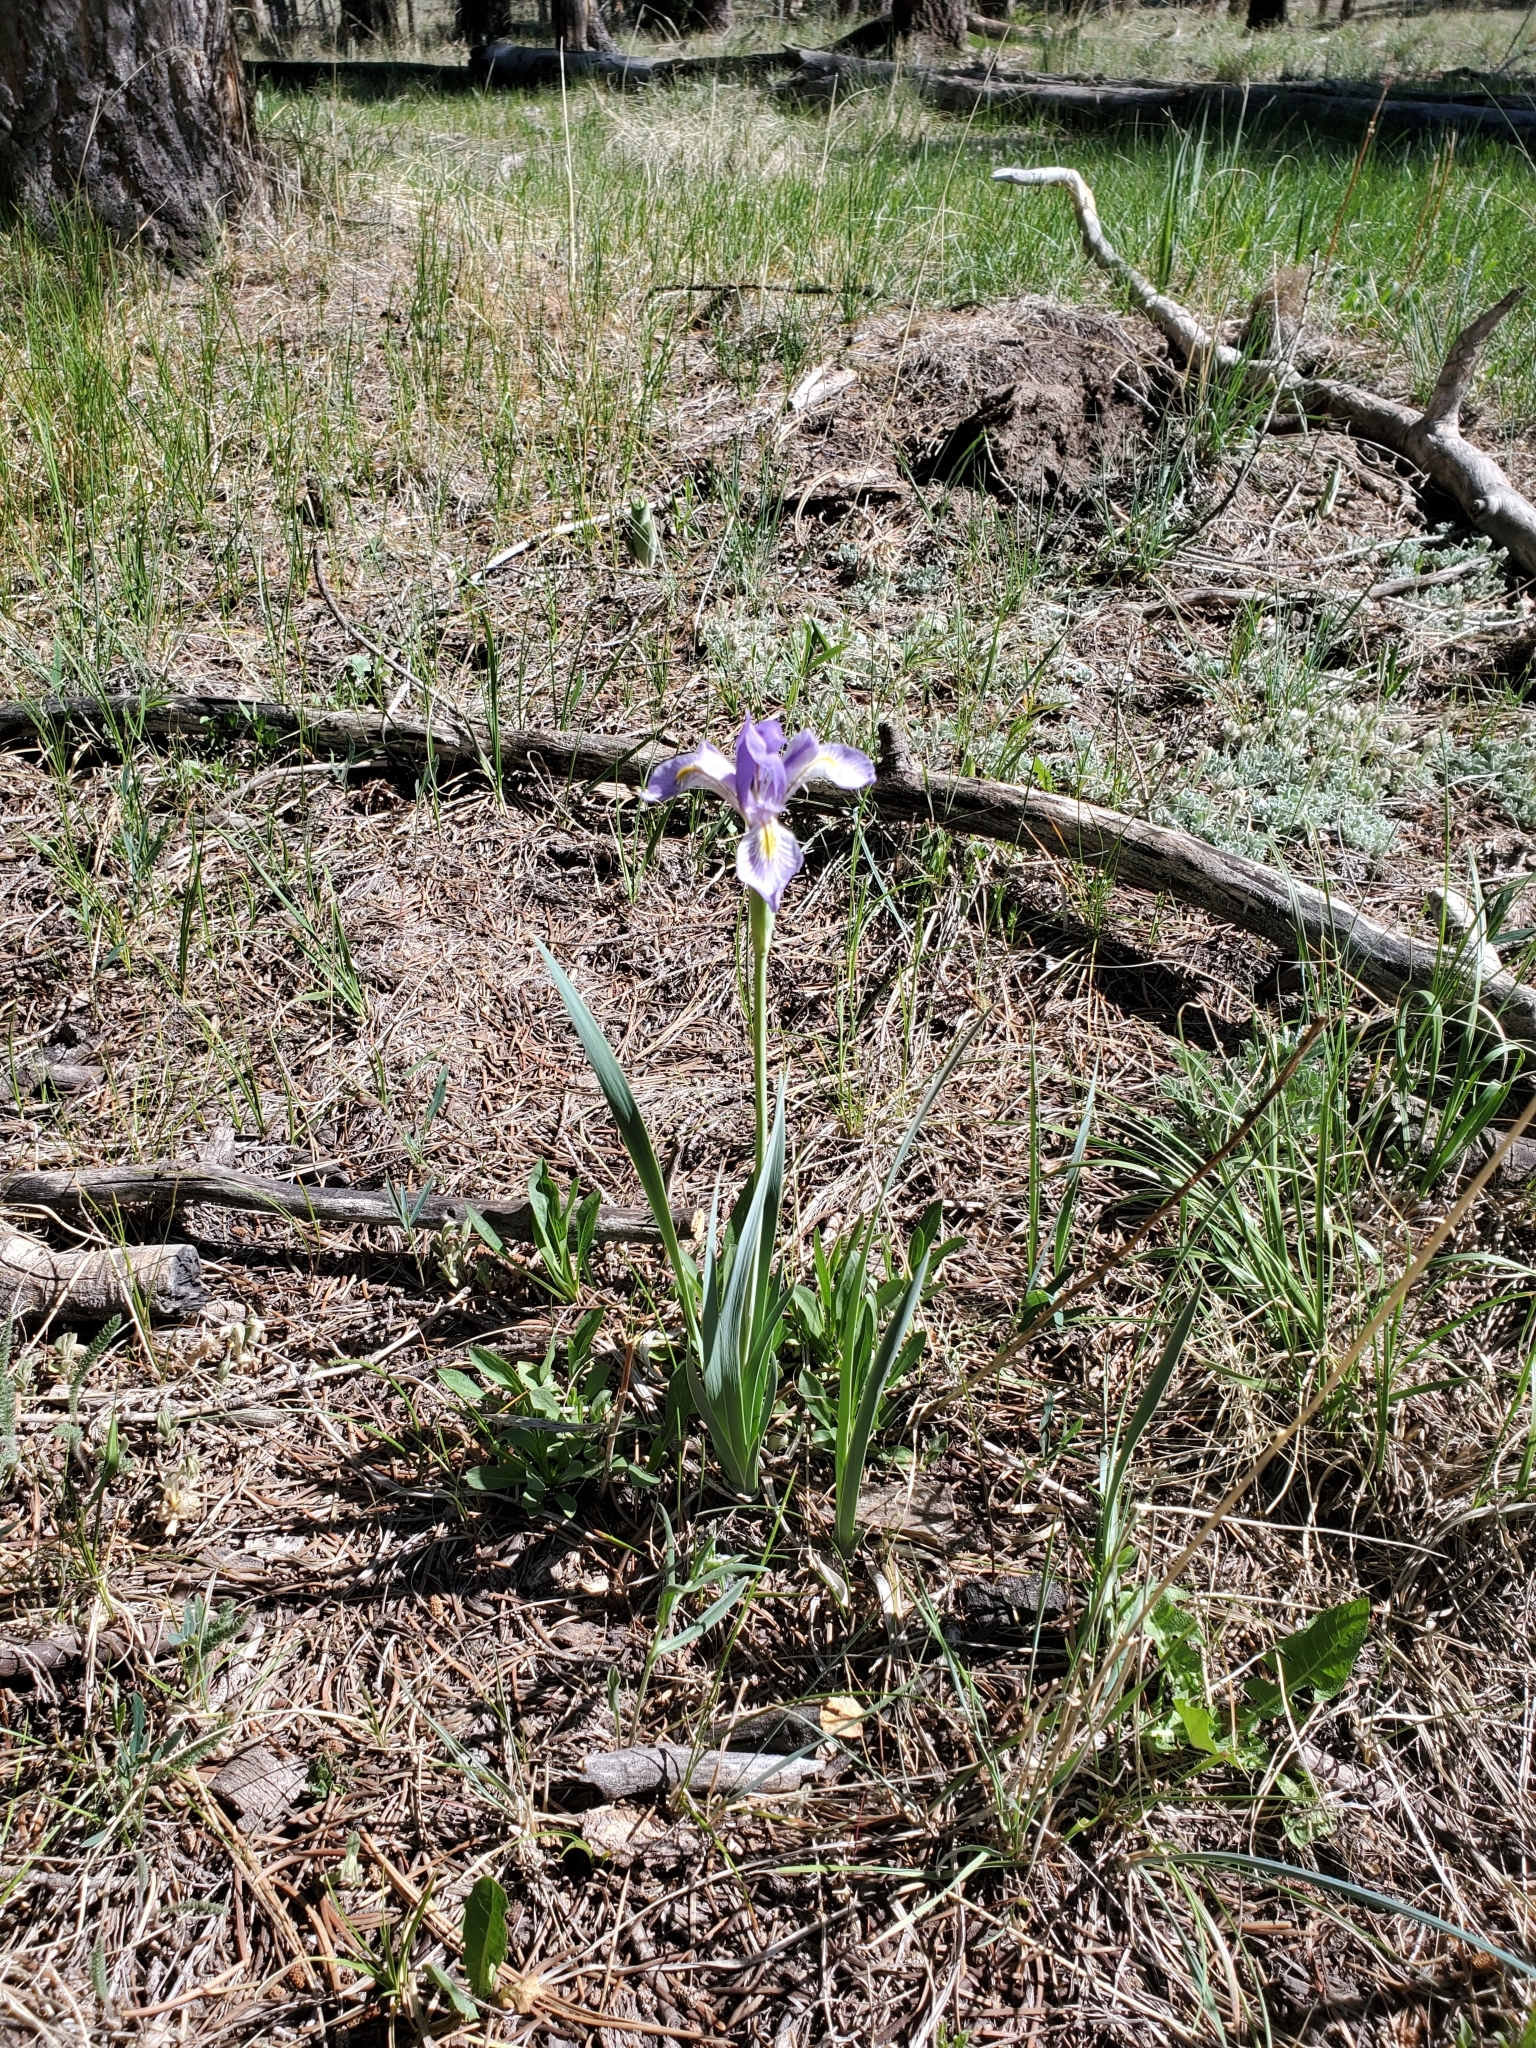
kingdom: Plantae
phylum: Tracheophyta
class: Liliopsida
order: Asparagales
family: Iridaceae
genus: Iris
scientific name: Iris missouriensis
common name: Rocky mountain iris
